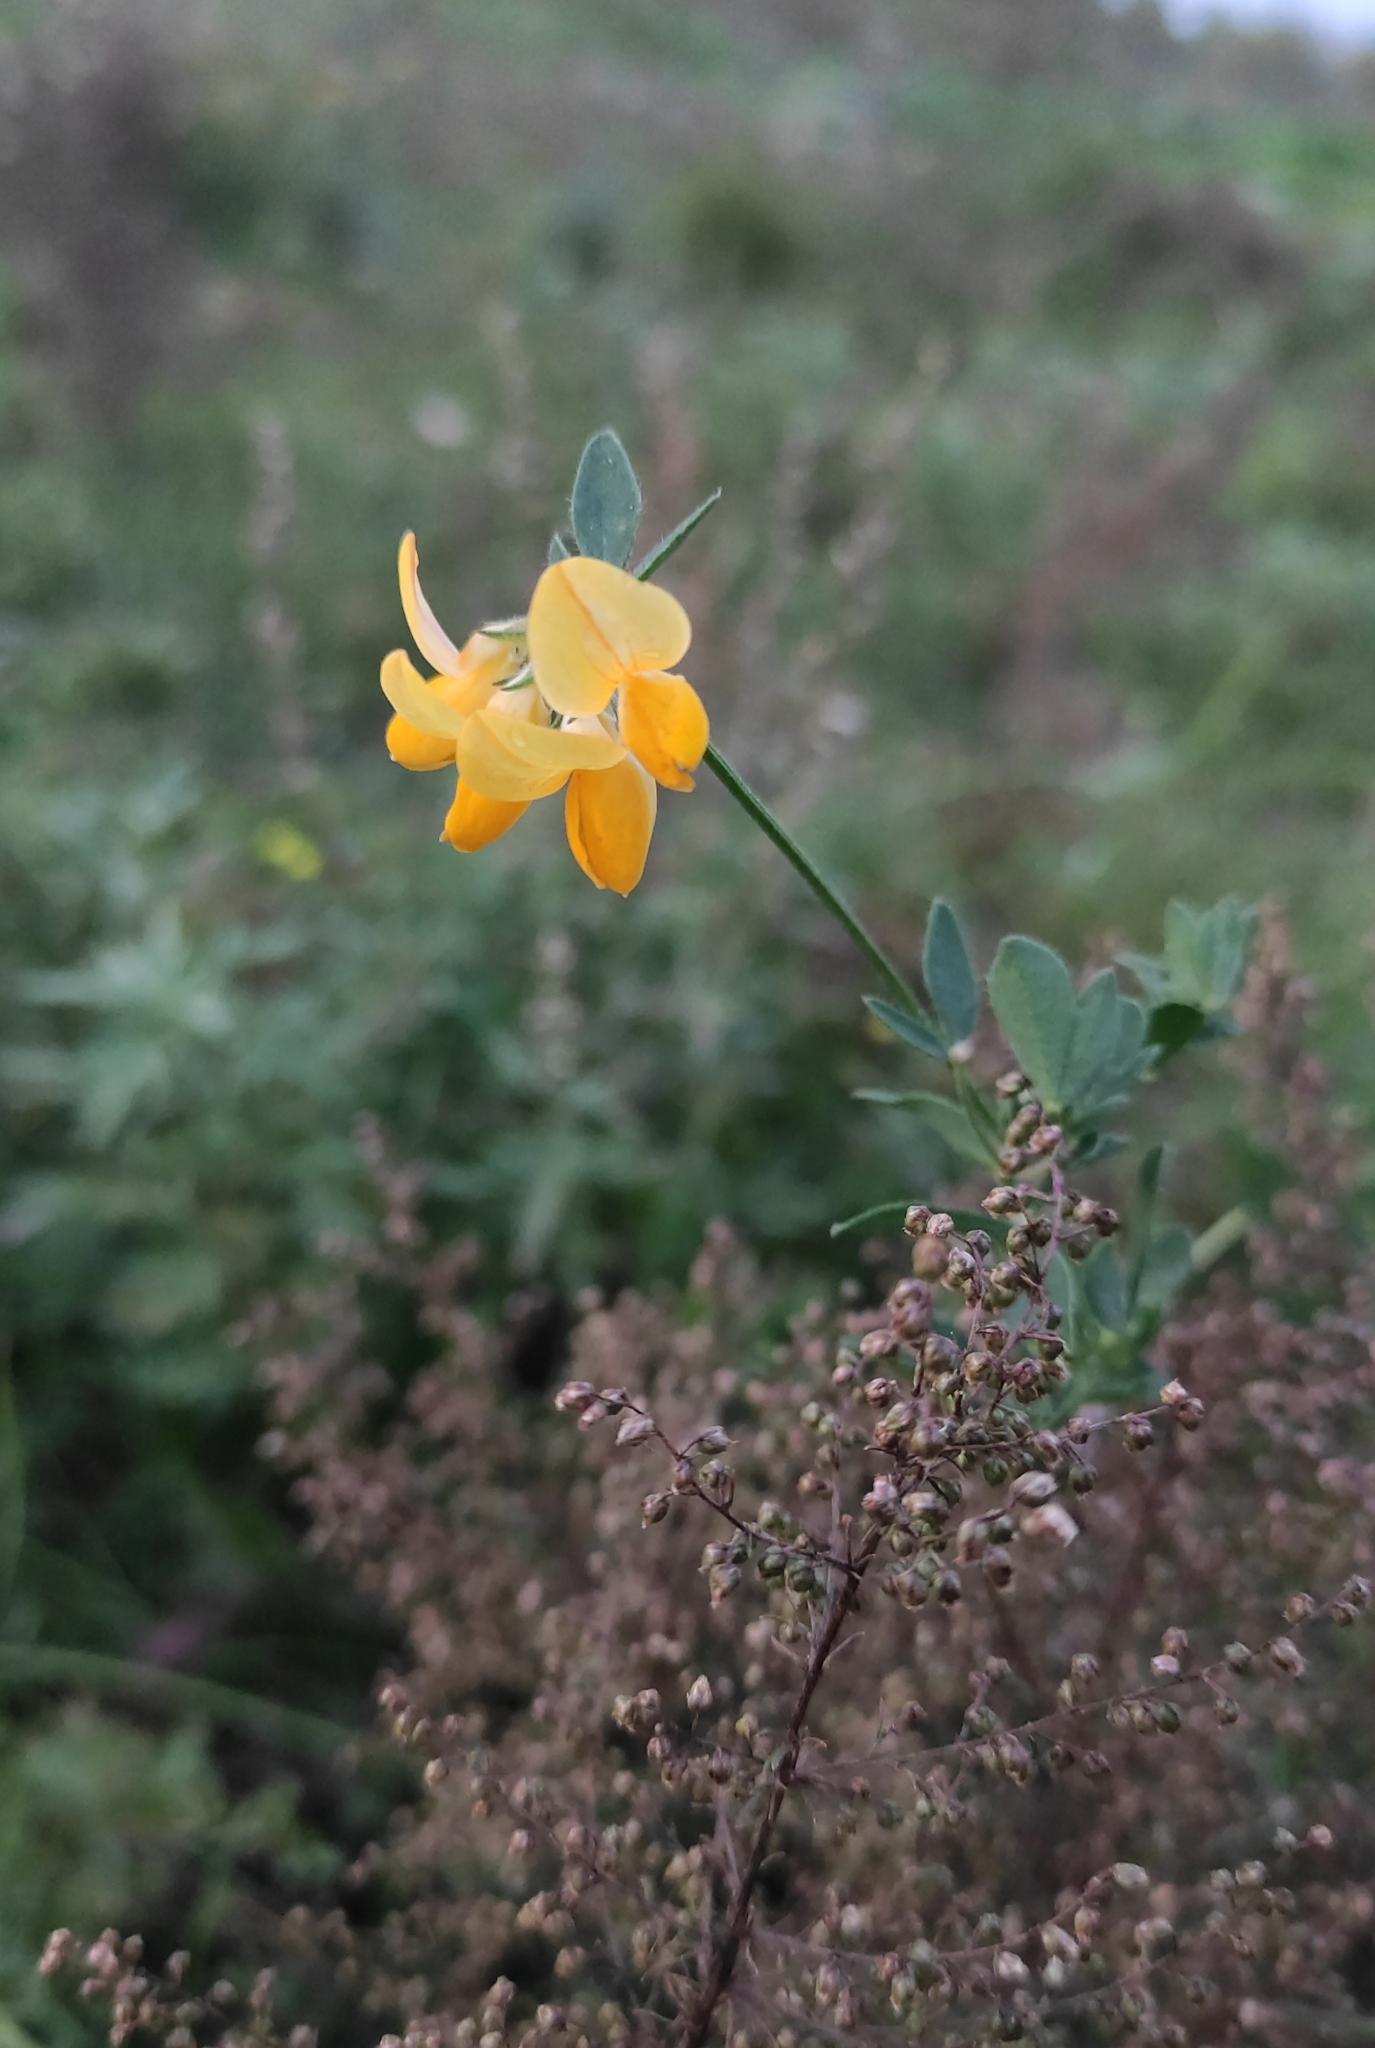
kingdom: Plantae
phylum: Tracheophyta
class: Magnoliopsida
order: Fabales
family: Fabaceae
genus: Lotus
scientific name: Lotus corniculatus
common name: Common bird's-foot-trefoil
